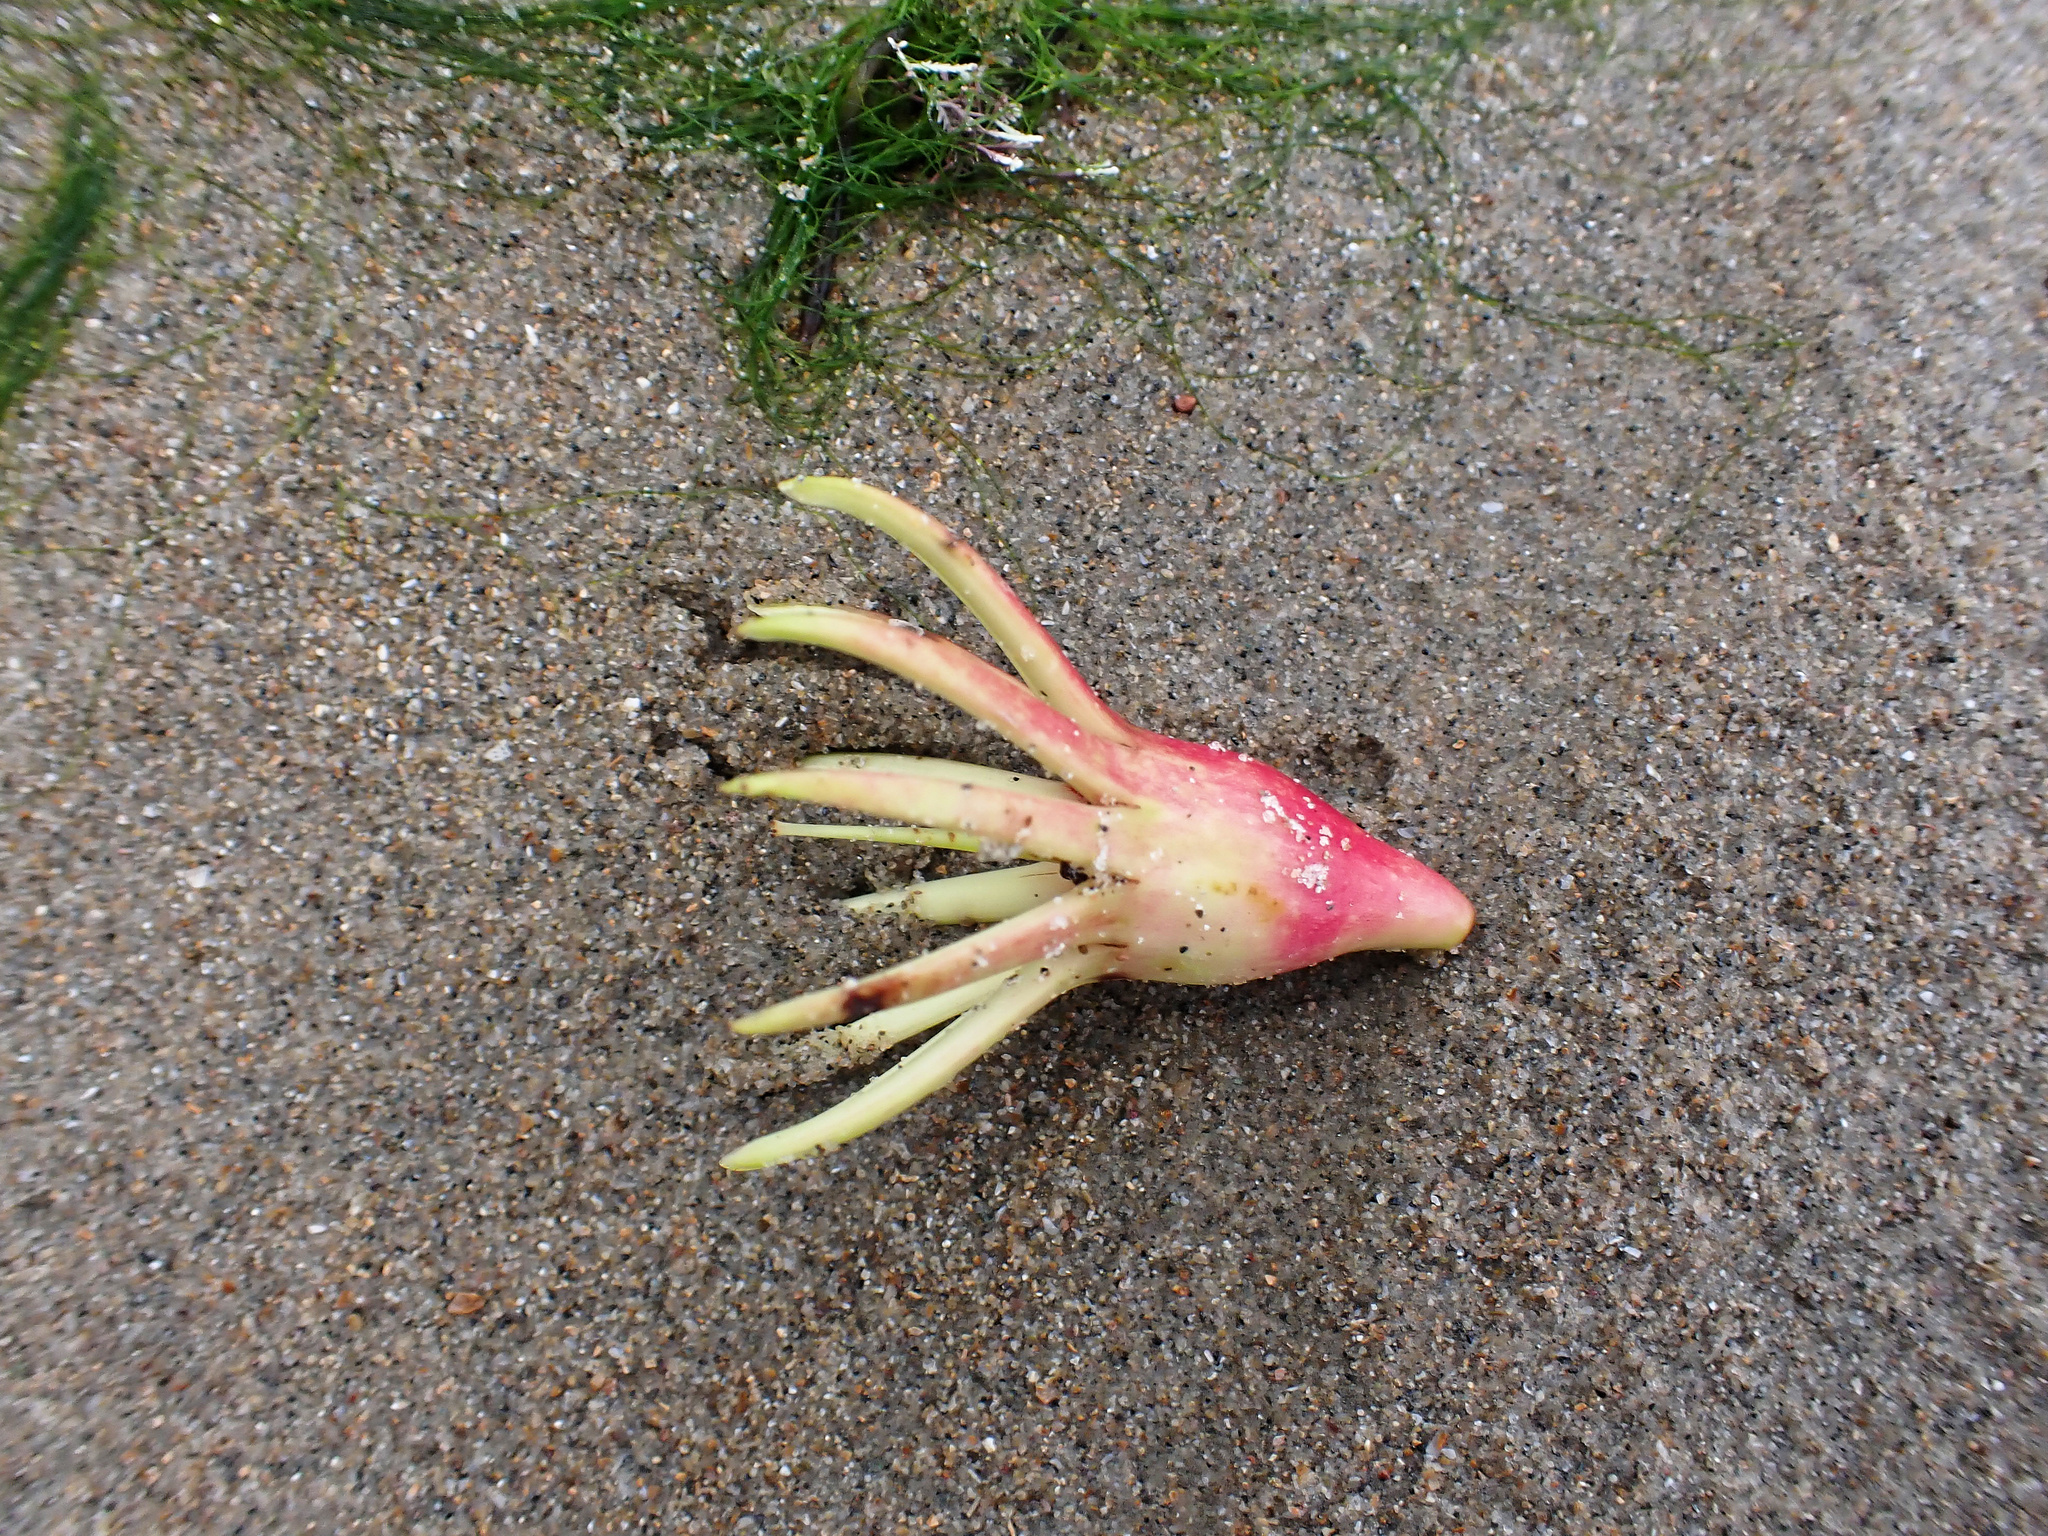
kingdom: Plantae
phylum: Tracheophyta
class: Magnoliopsida
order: Malpighiales
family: Rhizophoraceae
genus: Bruguiera
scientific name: Bruguiera gymnorhiza
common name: Oriental mangrove
